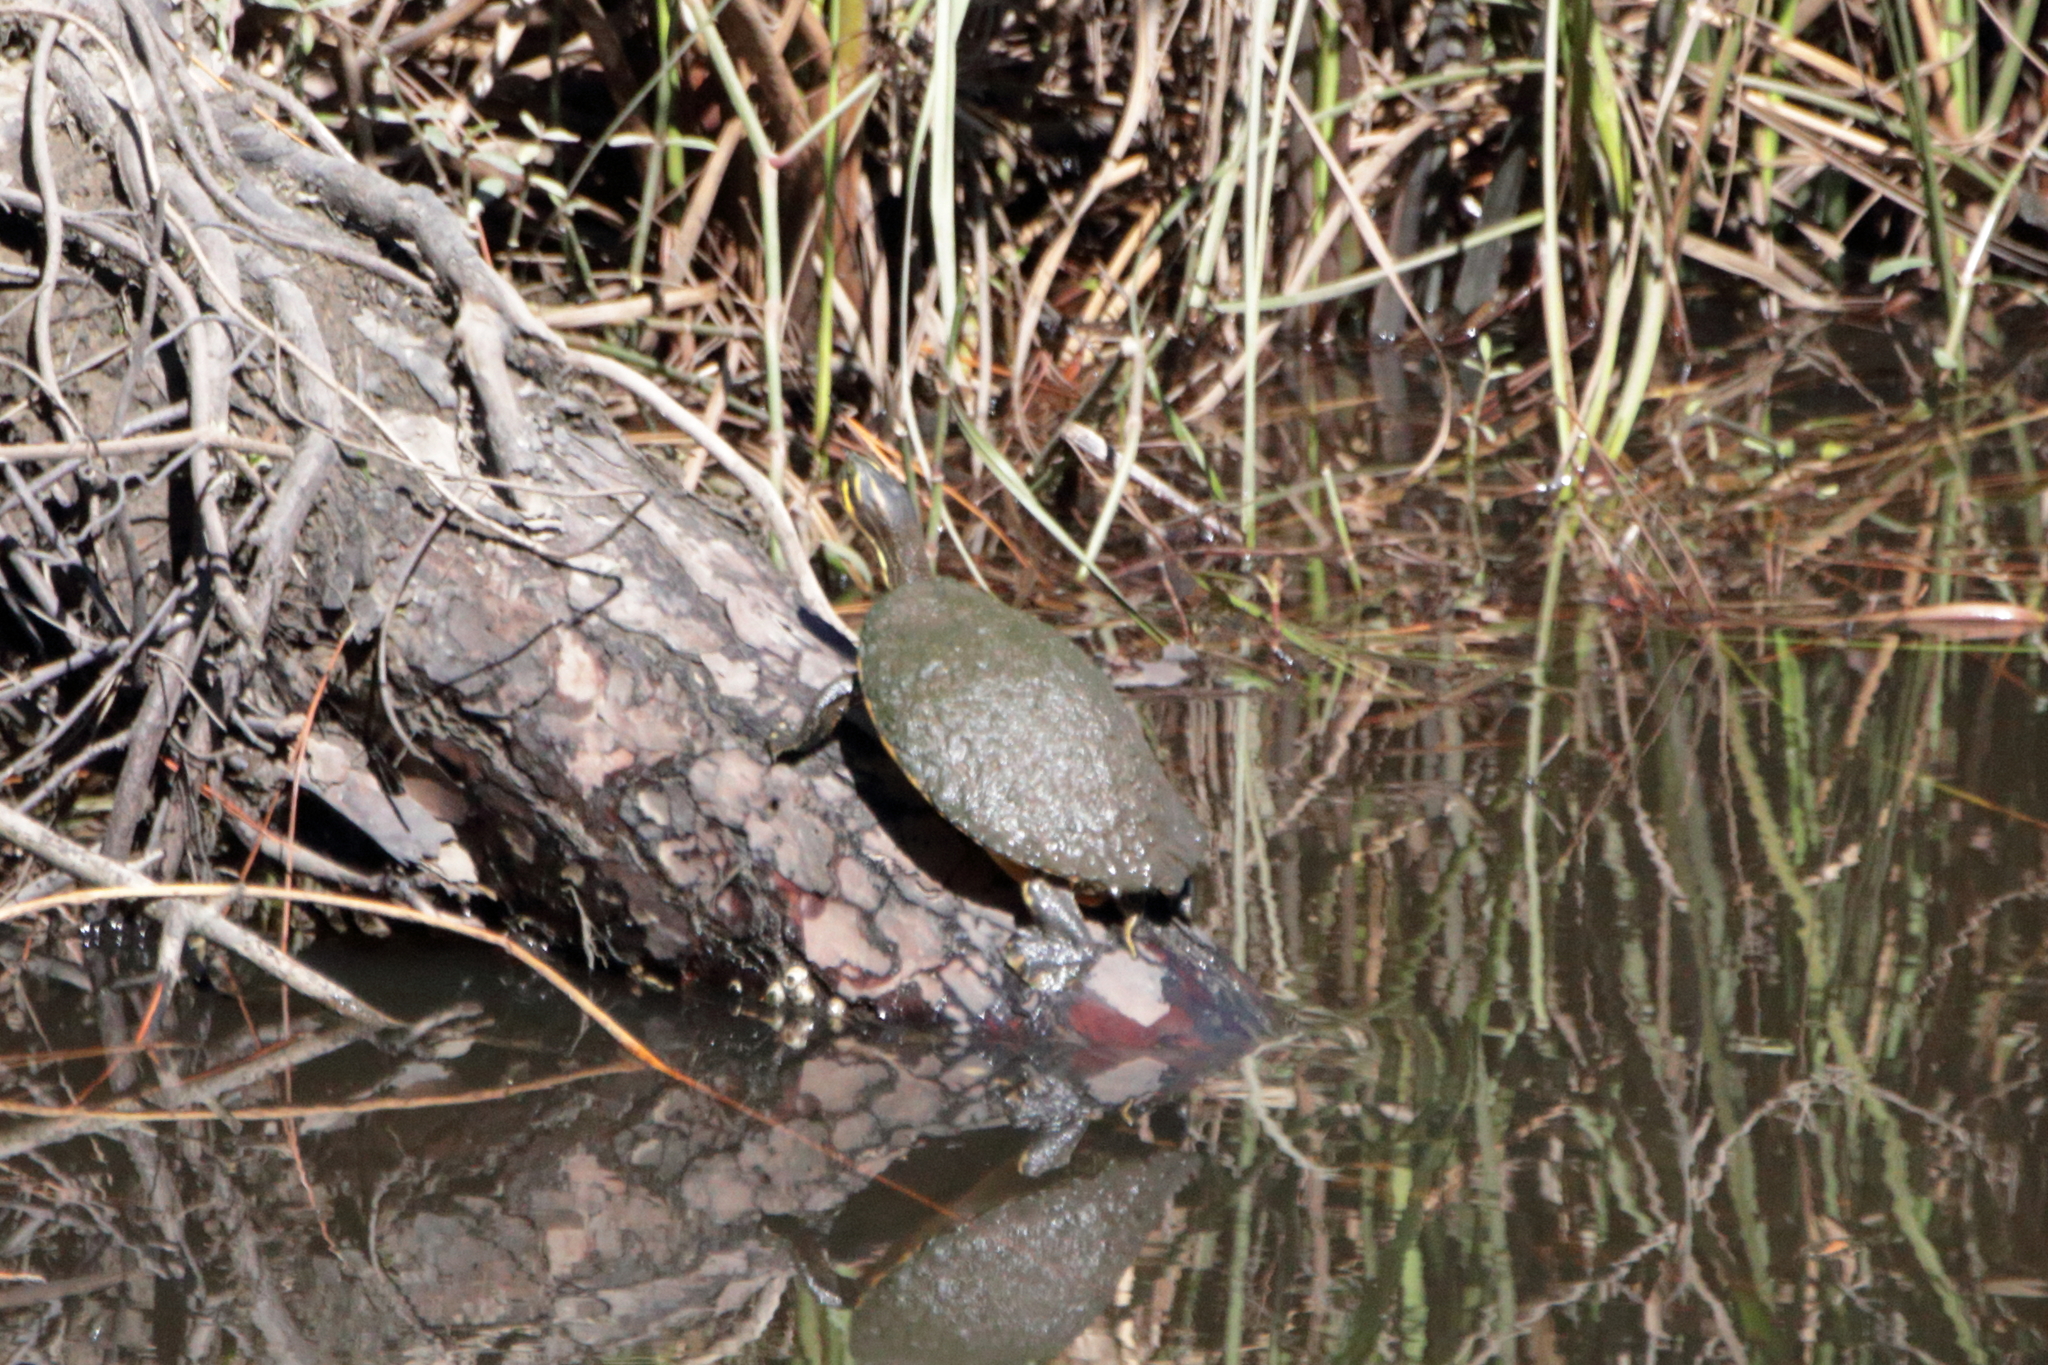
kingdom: Animalia
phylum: Chordata
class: Testudines
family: Emydidae
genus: Pseudemys
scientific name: Pseudemys concinna
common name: Eastern river cooter
